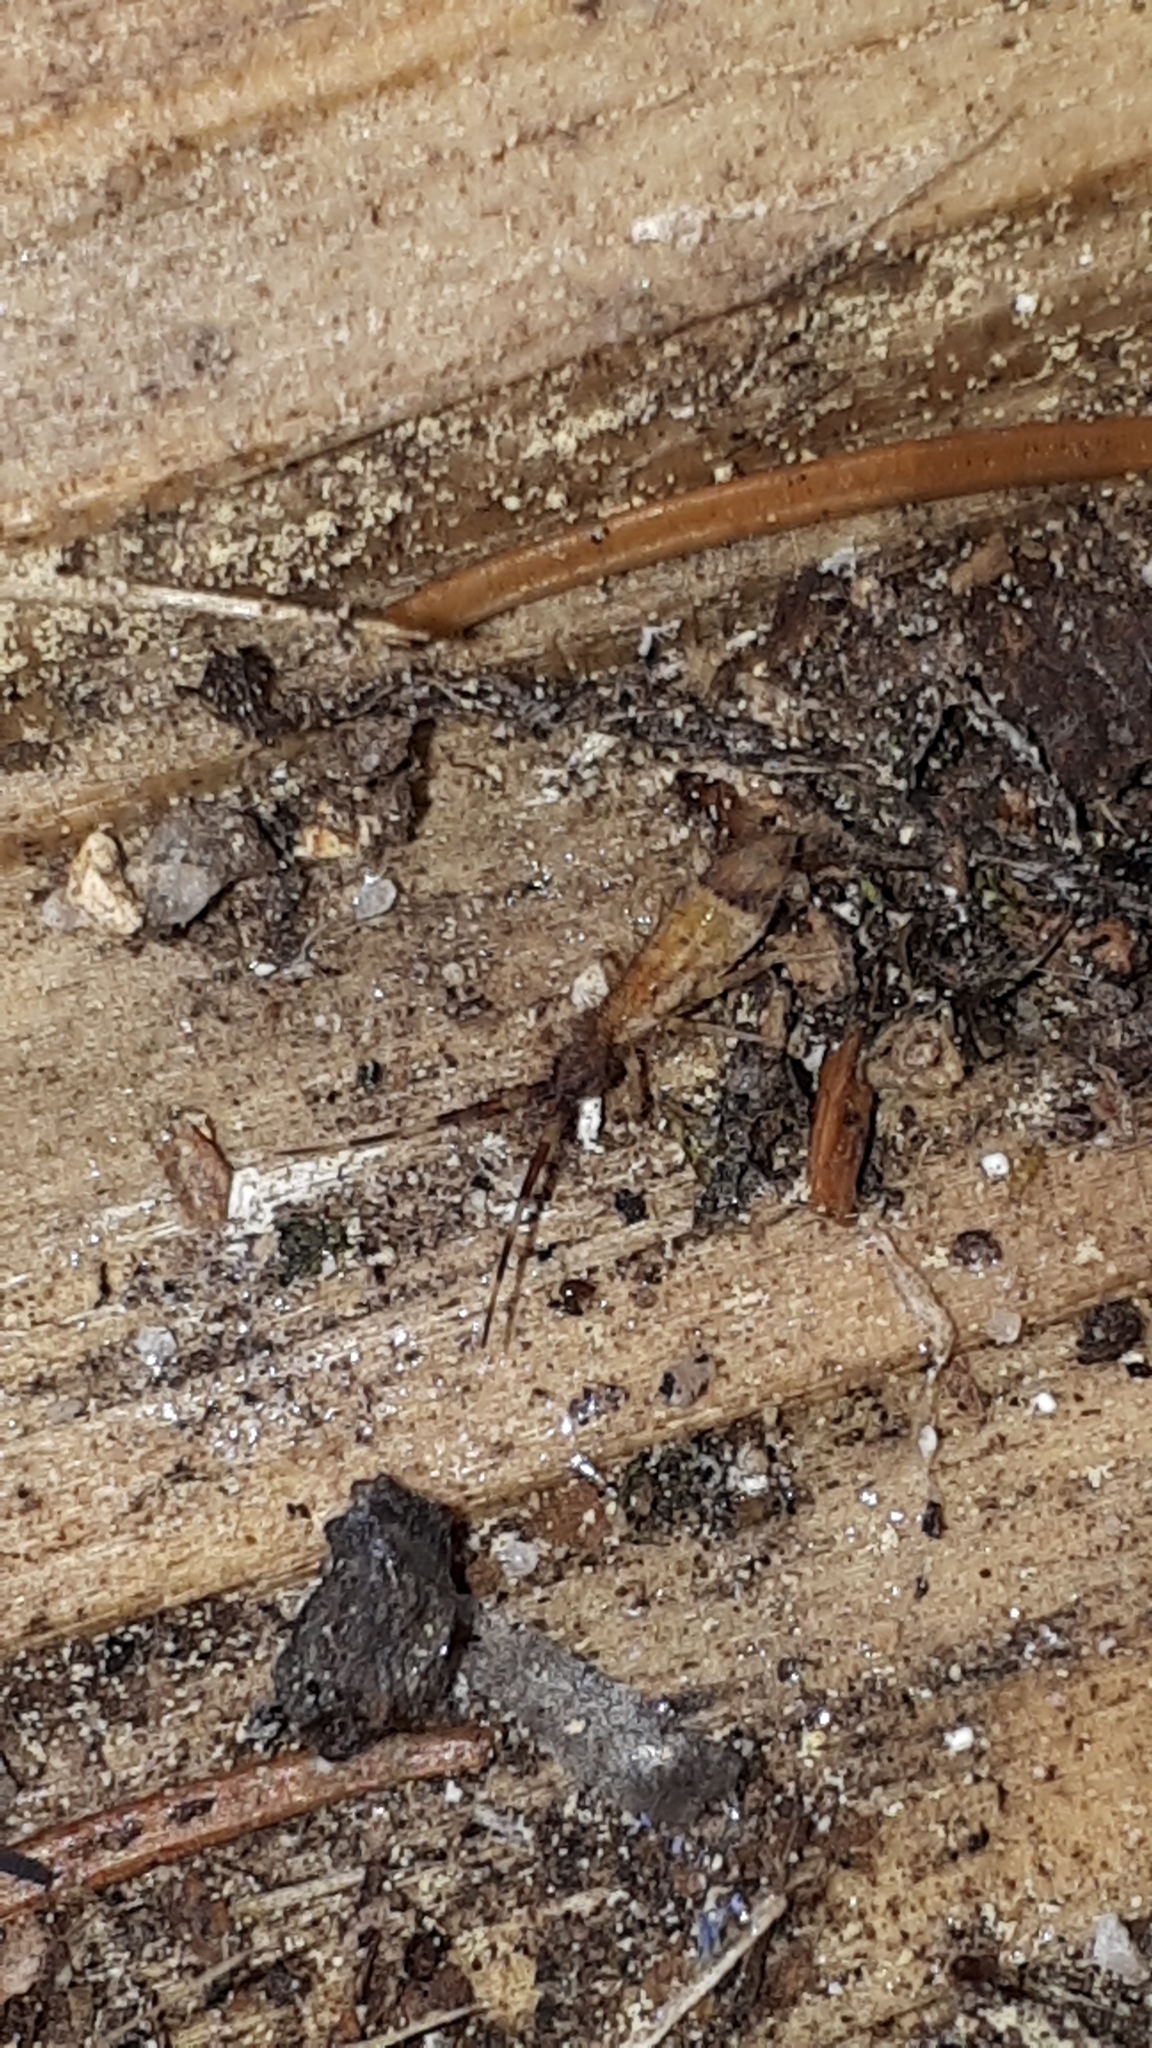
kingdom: Animalia
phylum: Arthropoda
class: Collembola
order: Entomobryomorpha
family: Entomobryidae
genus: Entomobrya
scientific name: Entomobrya nivalis
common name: Cosmopolitan springtail
